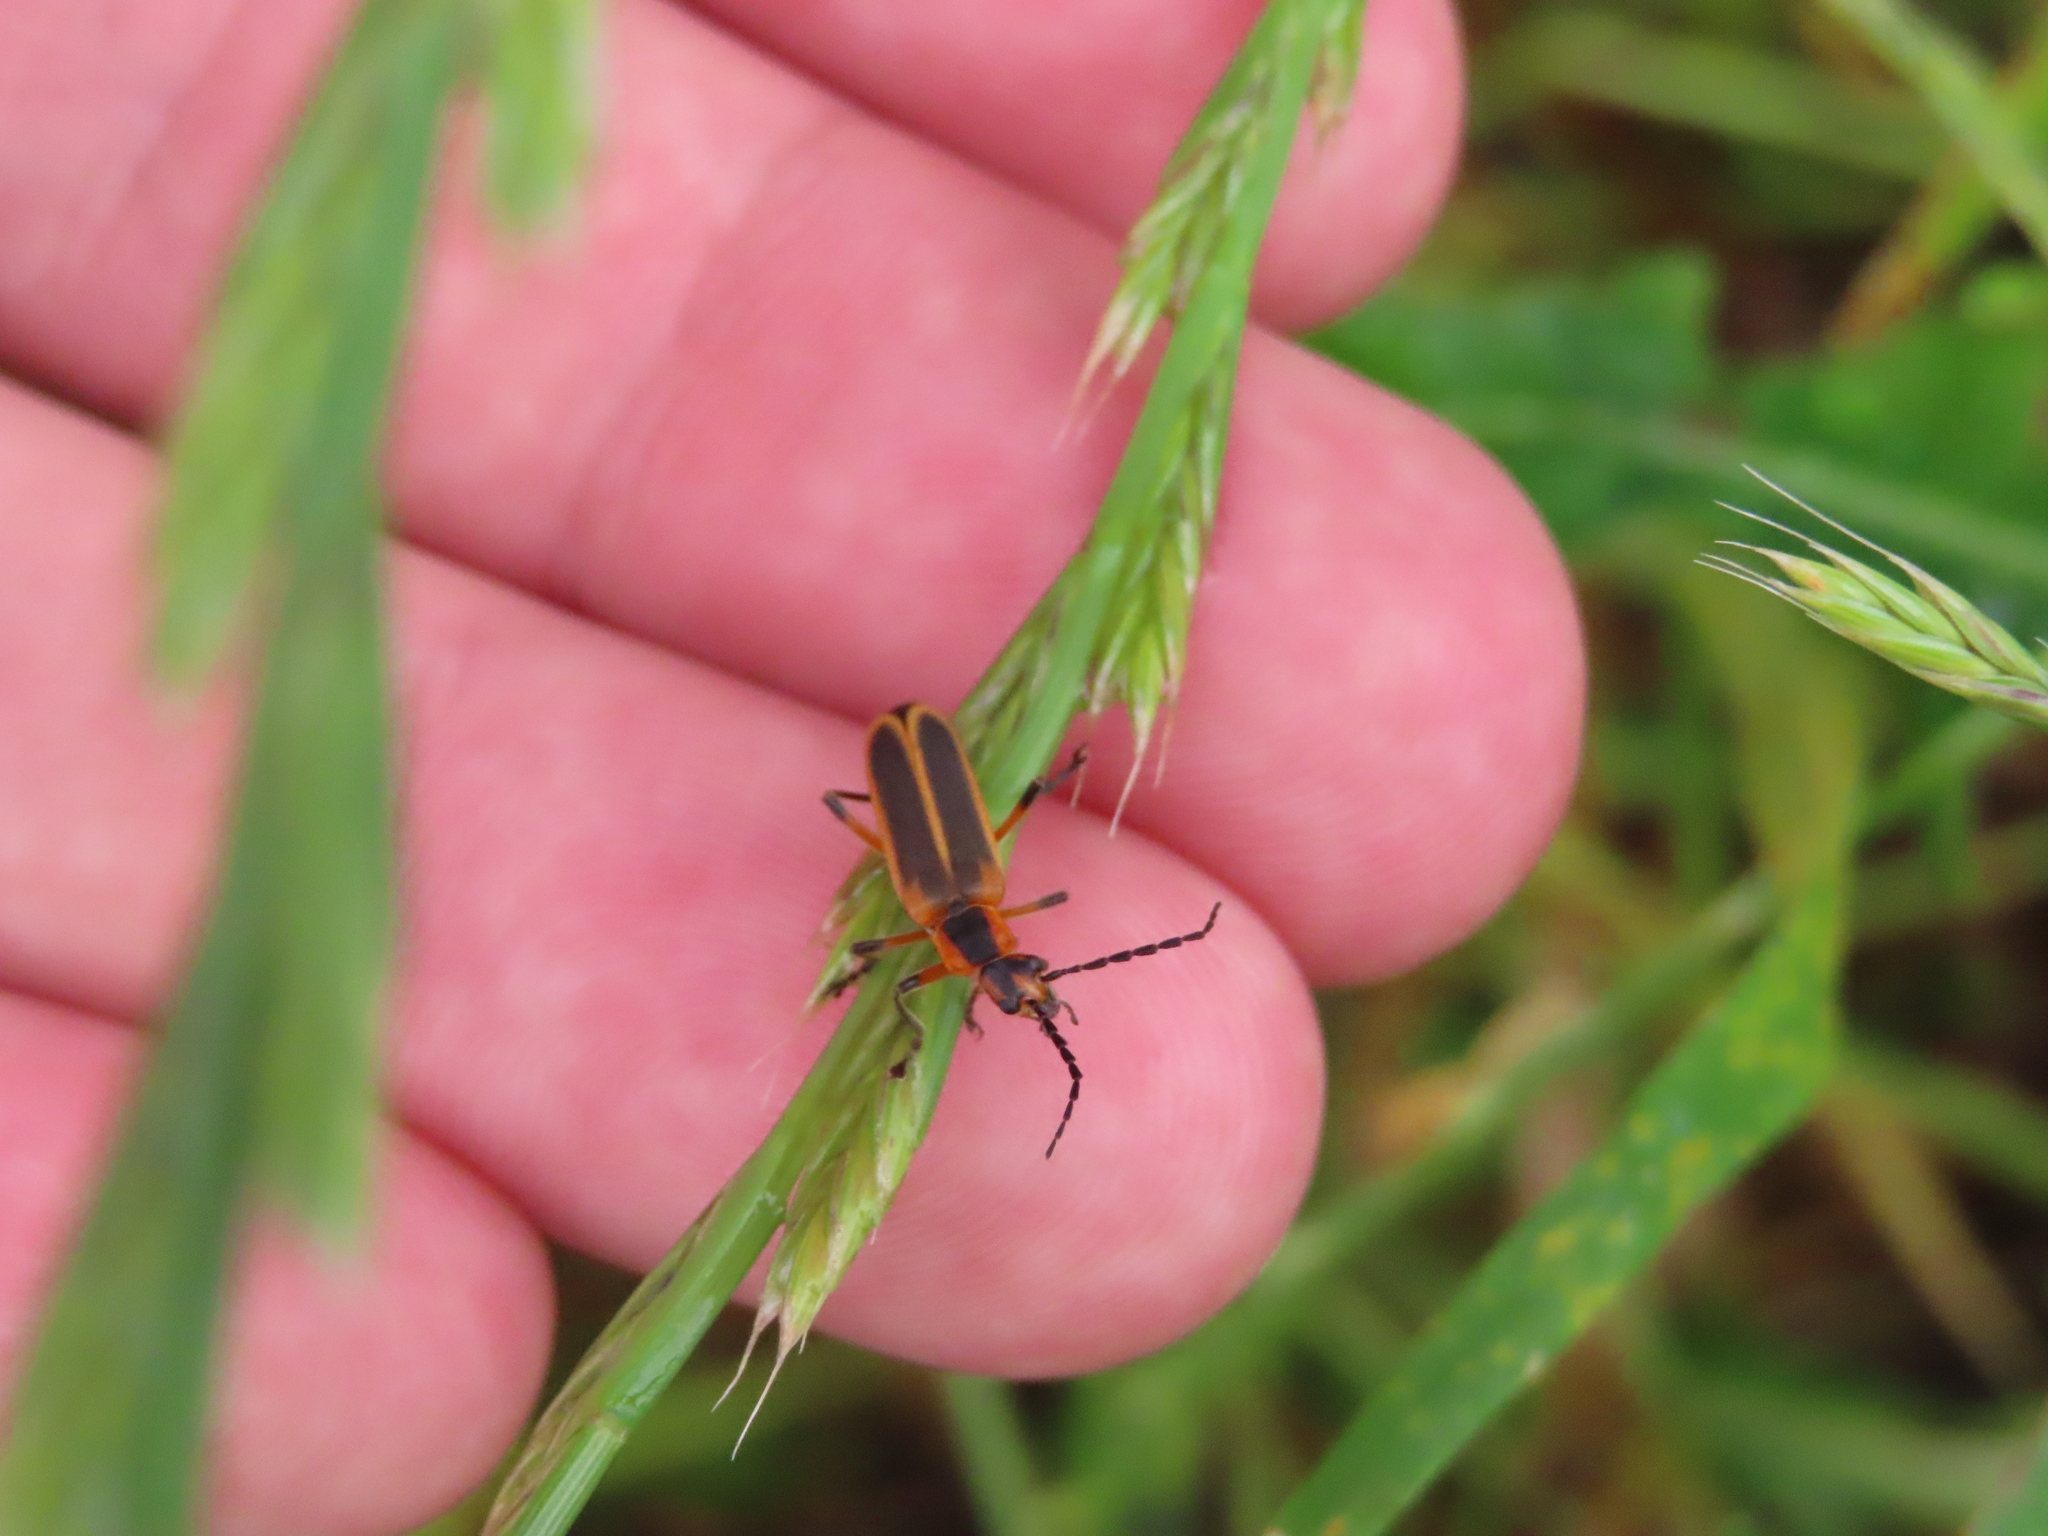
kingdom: Animalia
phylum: Arthropoda
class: Insecta
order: Coleoptera
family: Cantharidae
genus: Chauliognathus
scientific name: Chauliognathus marginatus
